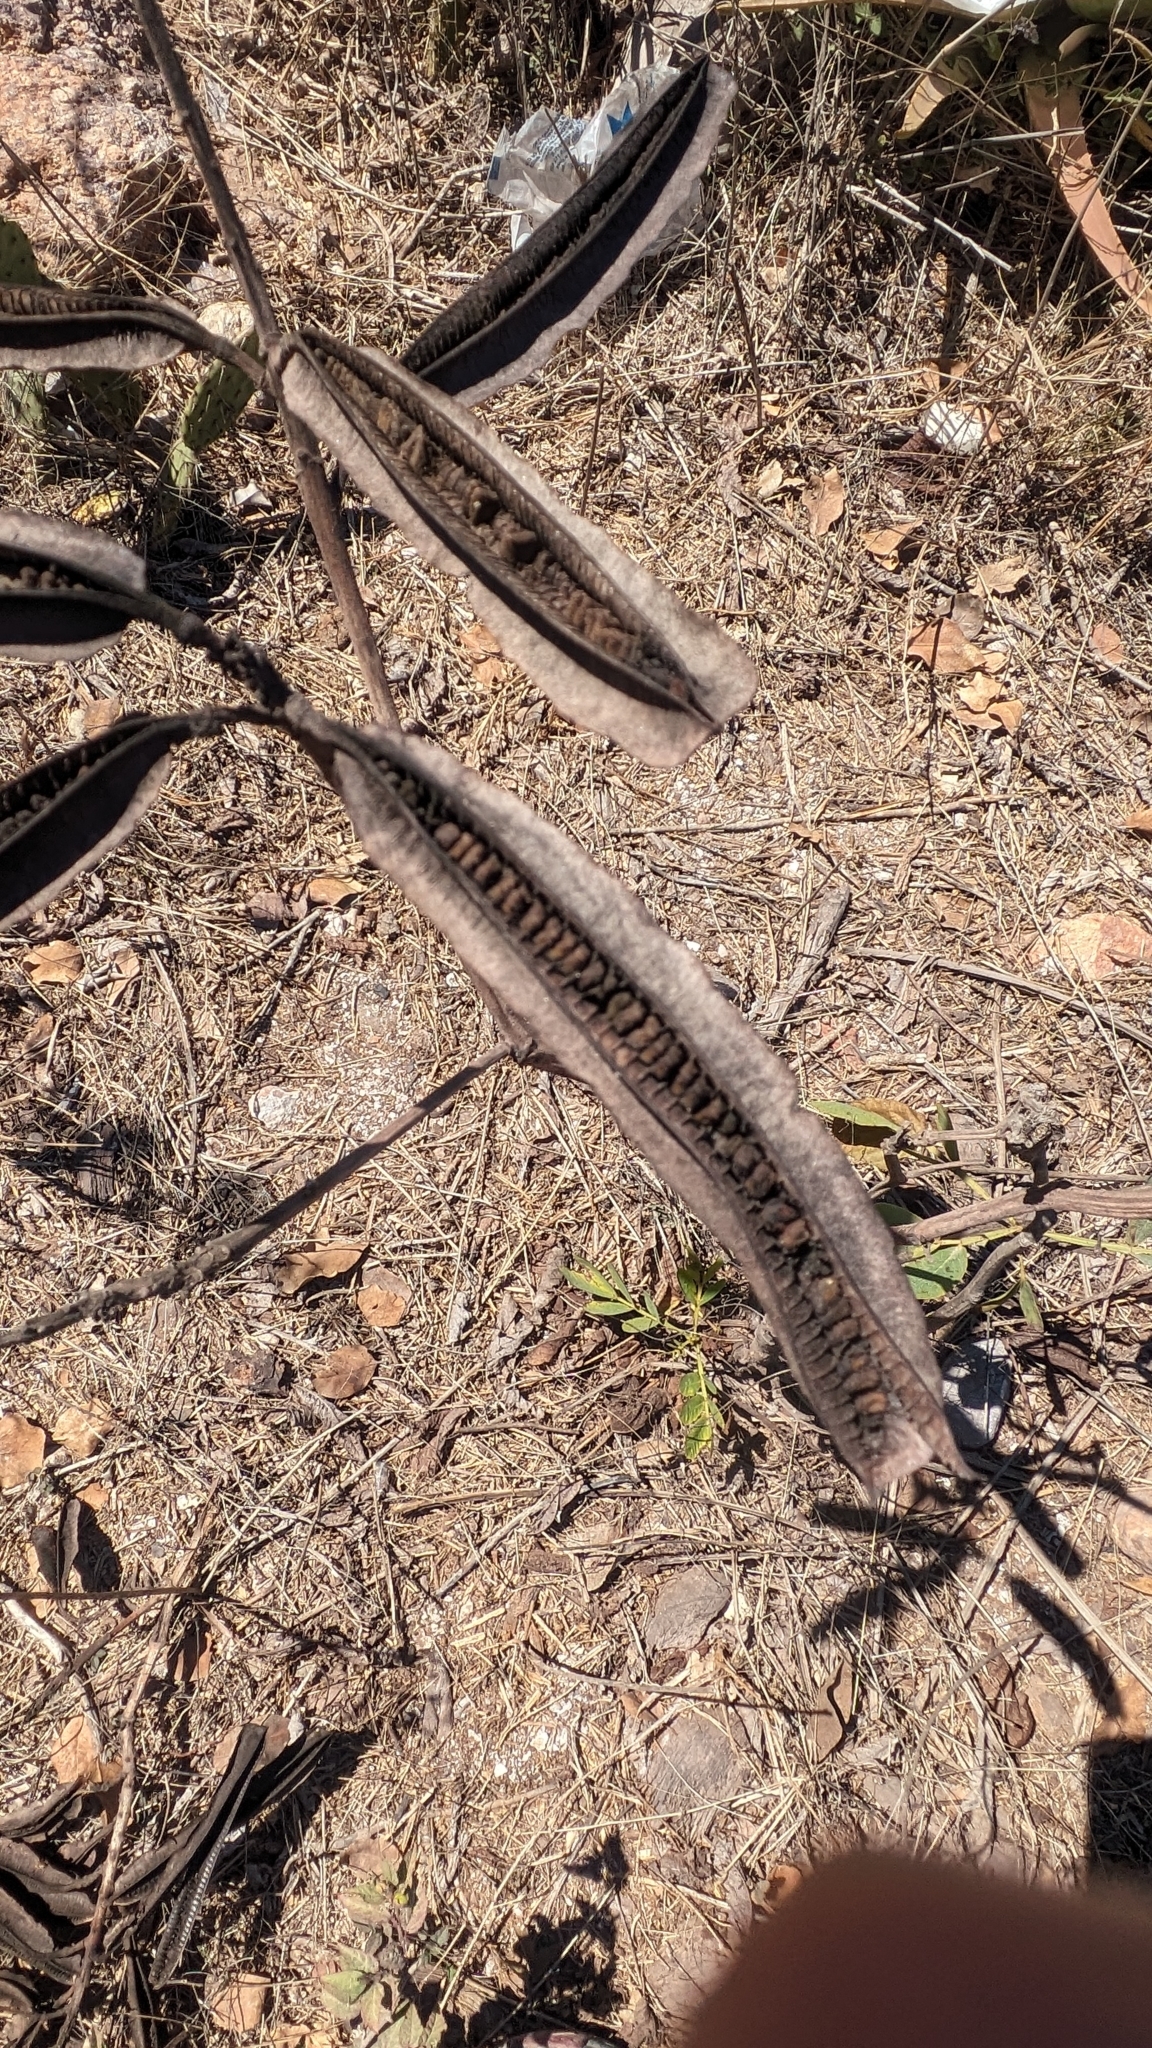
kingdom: Plantae
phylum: Tracheophyta
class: Magnoliopsida
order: Fabales
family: Fabaceae
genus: Senna
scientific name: Senna alata
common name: Emperor's candlesticks
